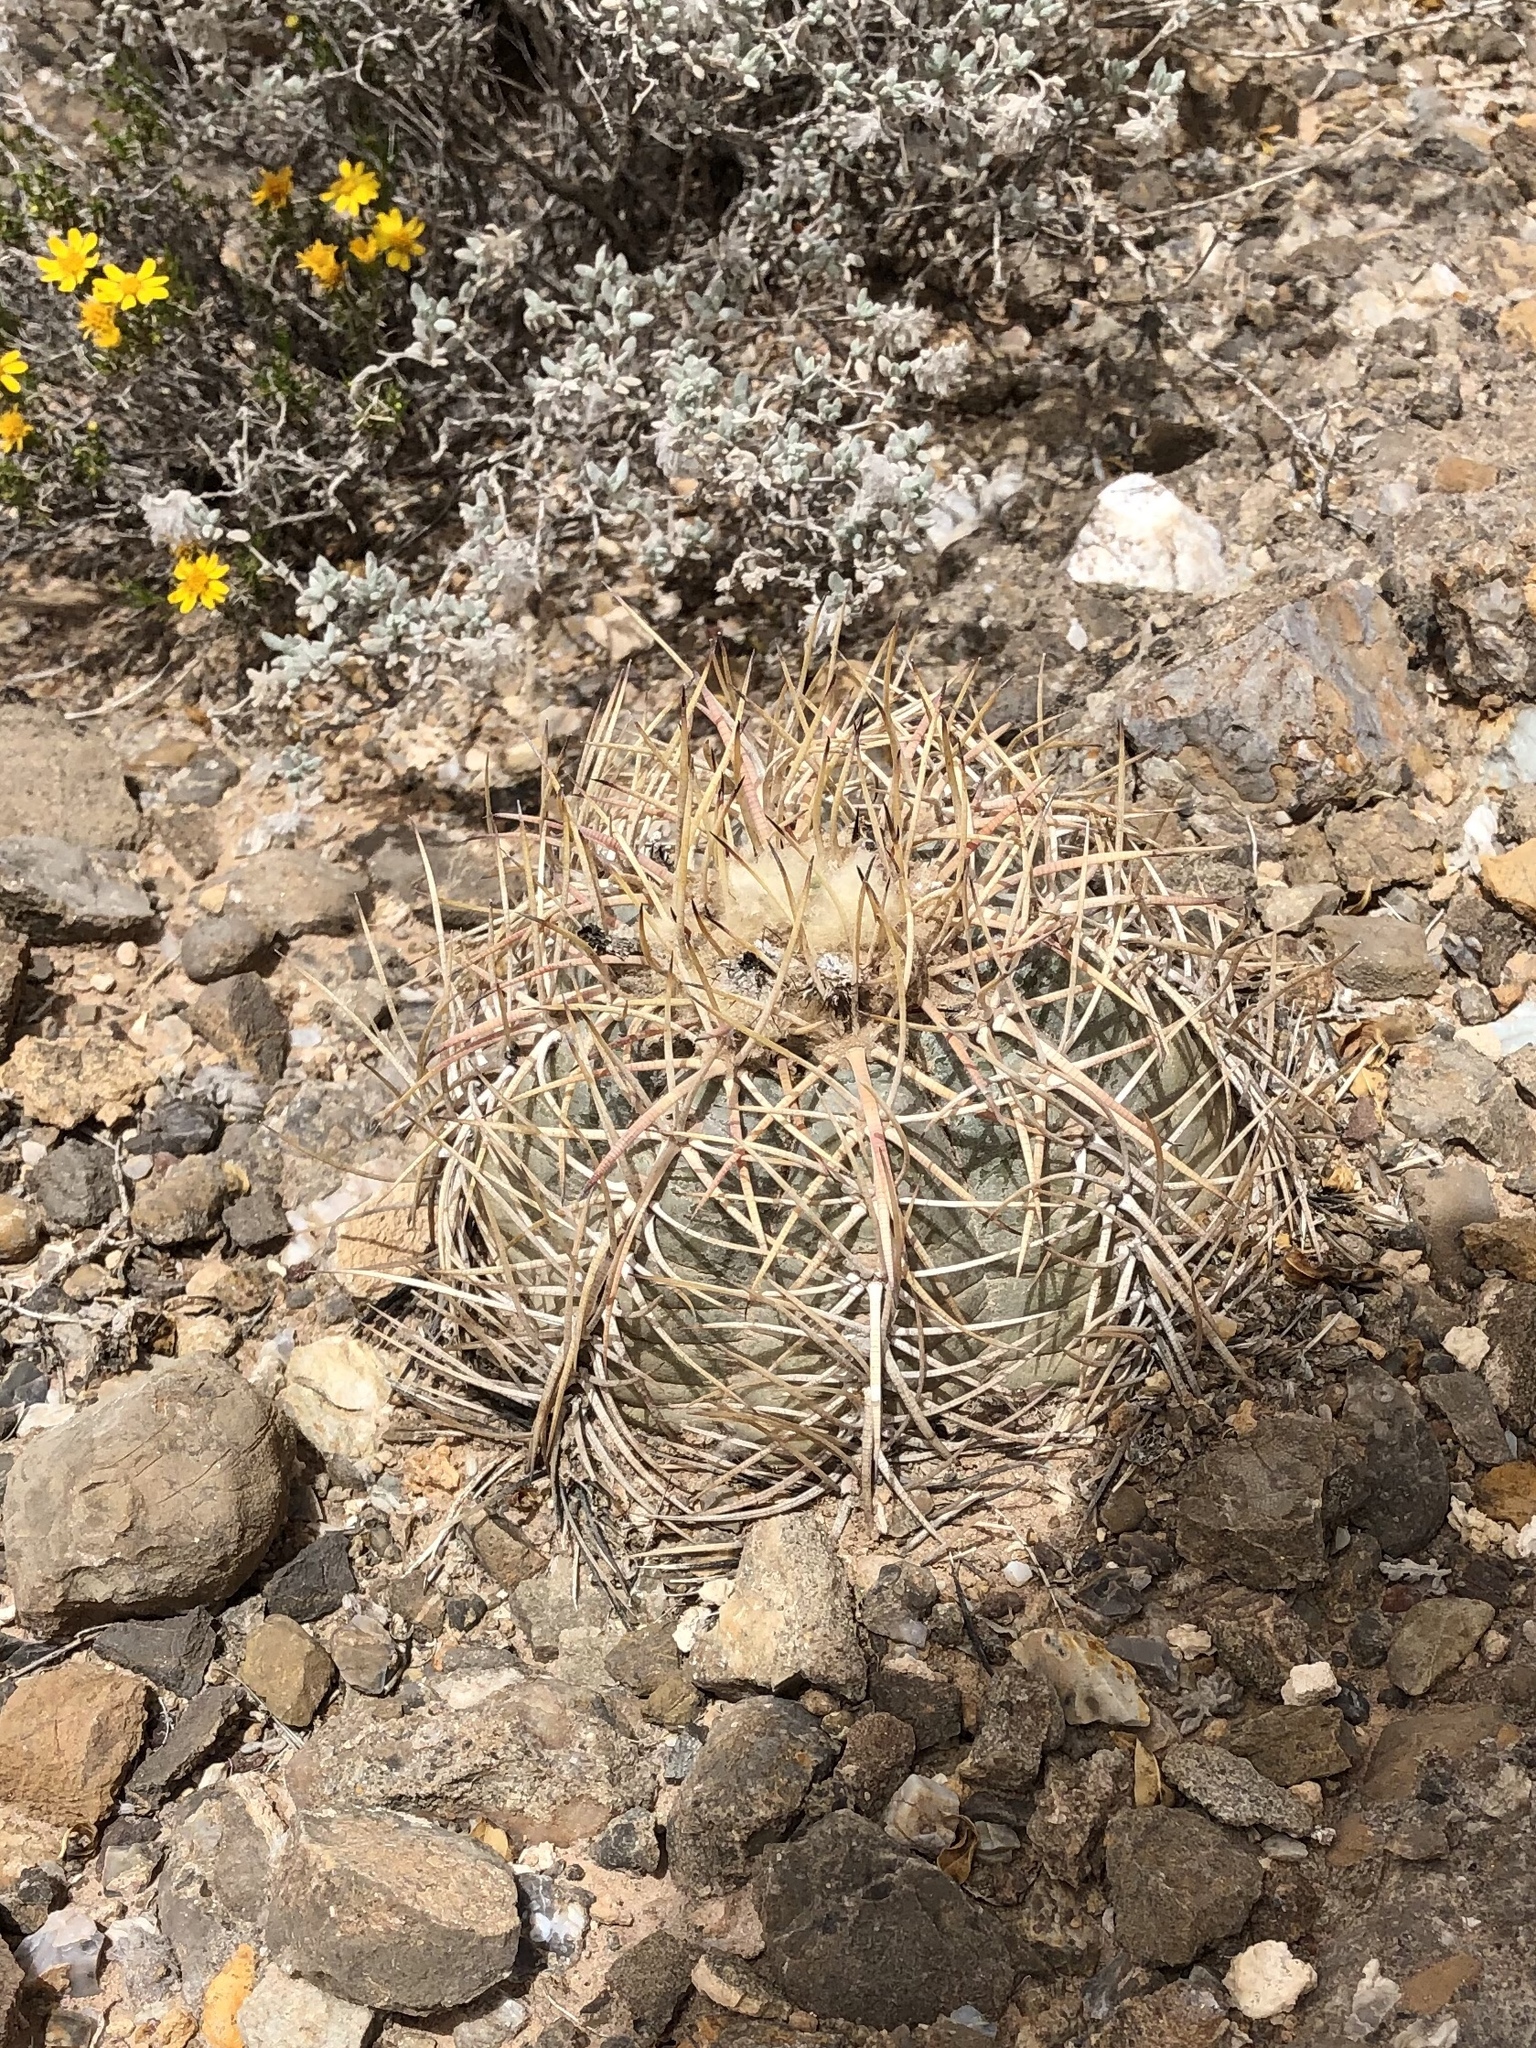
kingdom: Plantae
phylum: Tracheophyta
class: Magnoliopsida
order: Caryophyllales
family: Cactaceae
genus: Echinocactus
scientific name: Echinocactus horizonthalonius
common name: Devilshead
